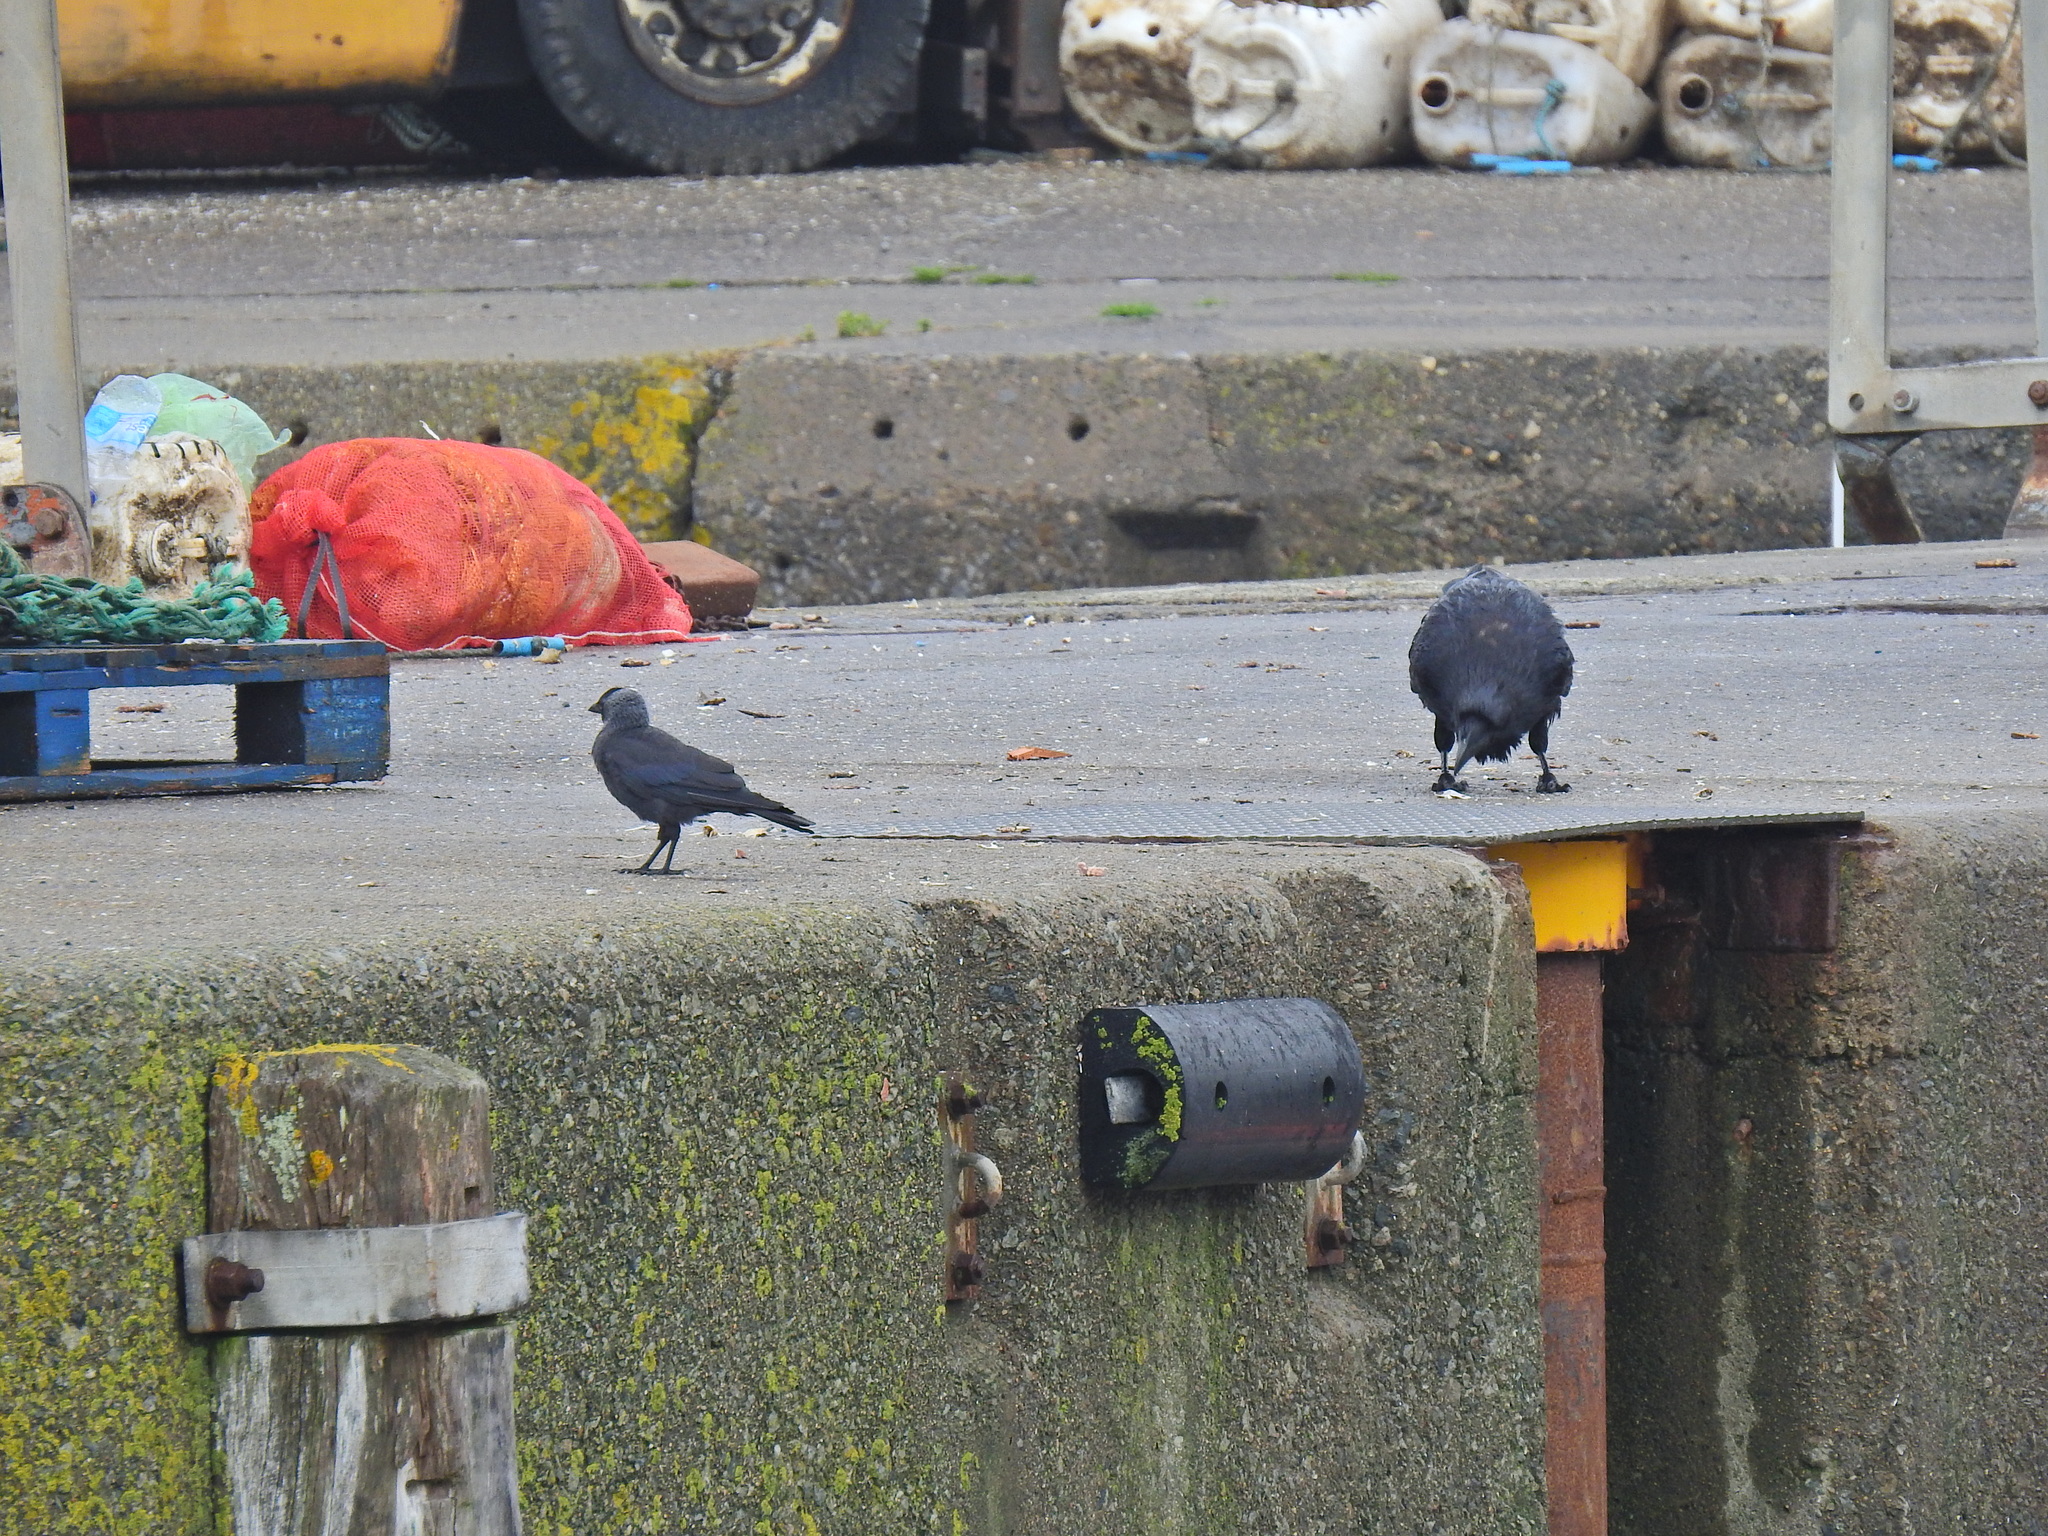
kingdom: Animalia
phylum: Chordata
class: Aves
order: Passeriformes
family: Corvidae
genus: Coloeus
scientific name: Coloeus monedula
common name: Western jackdaw
